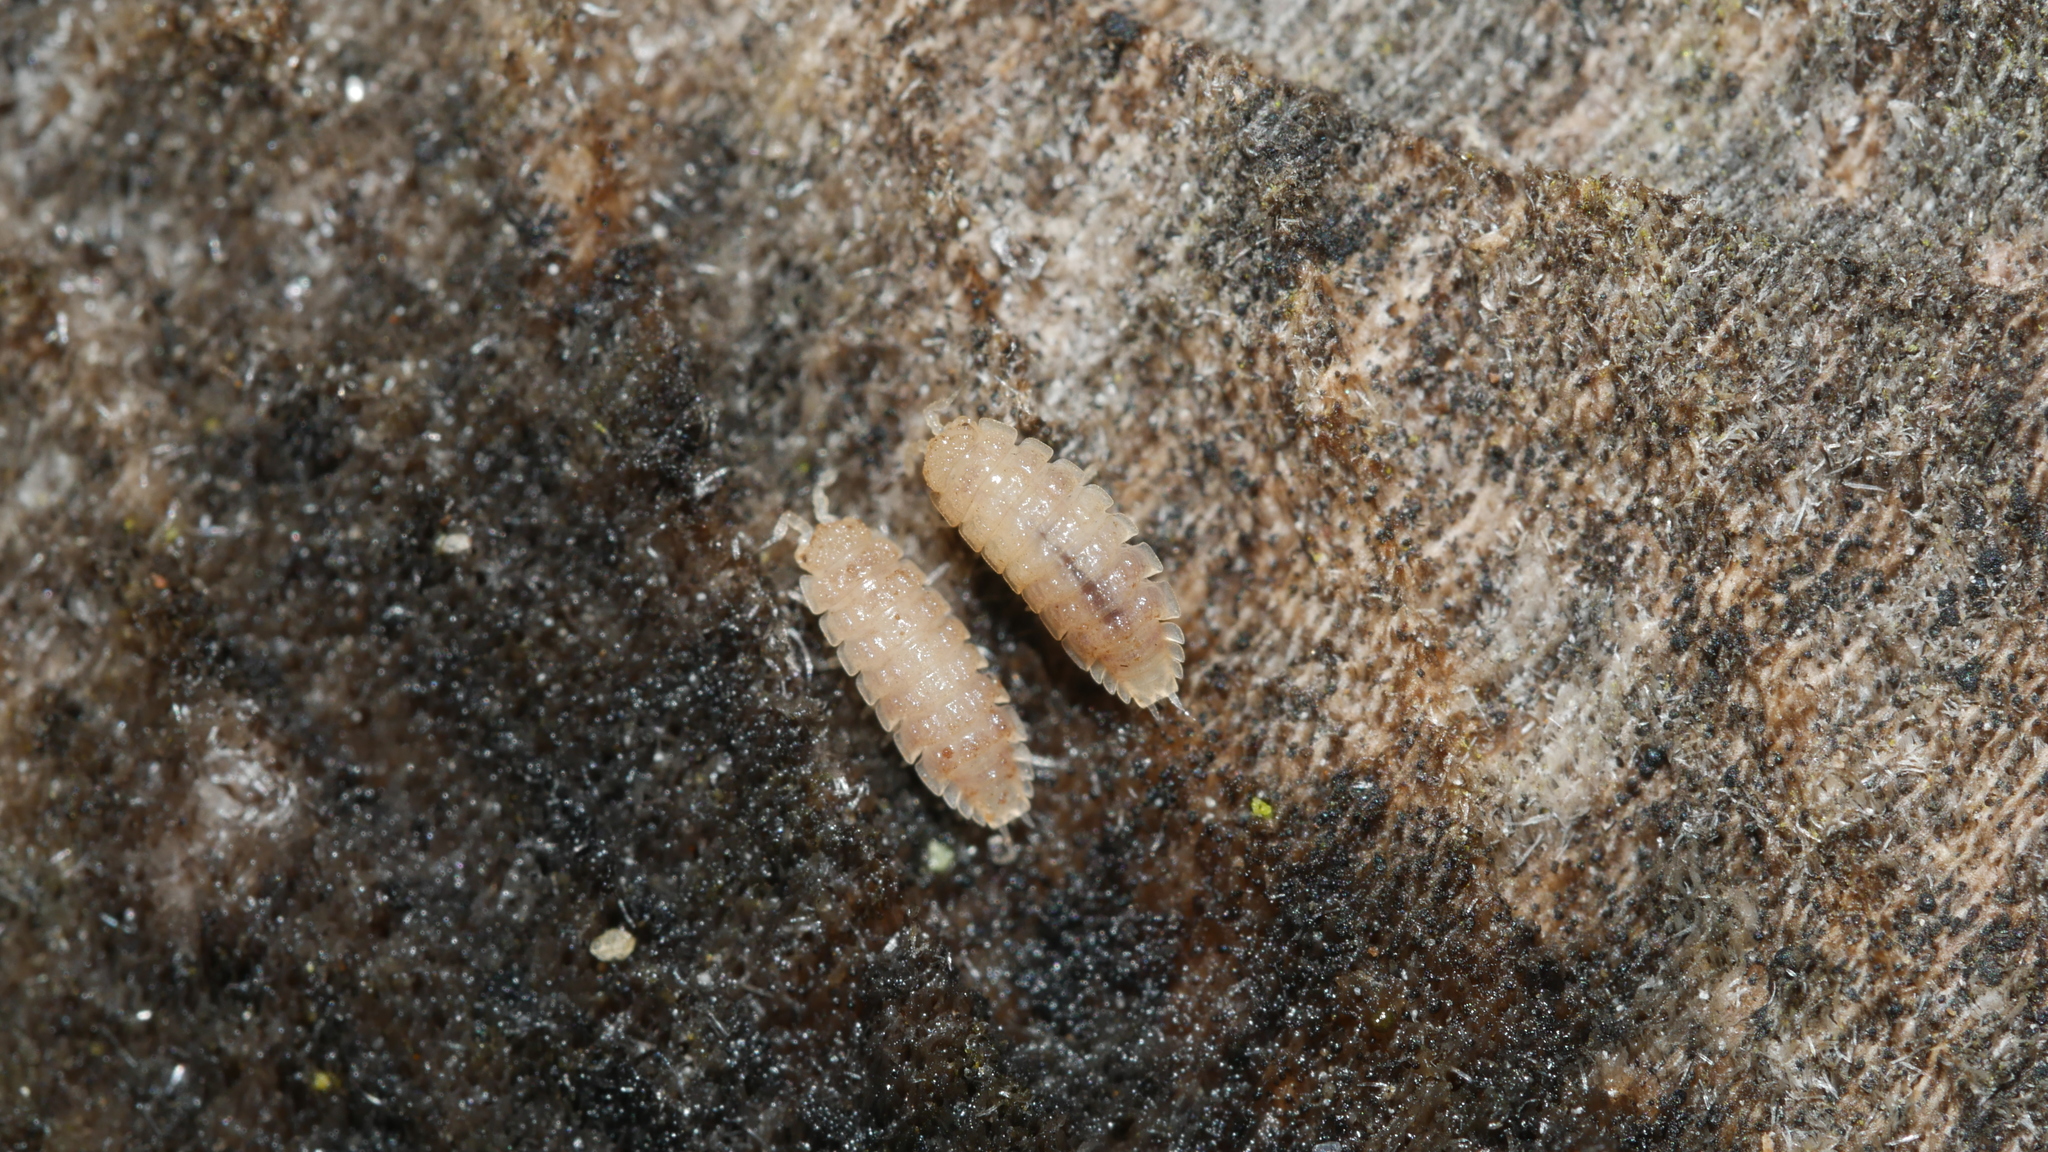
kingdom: Animalia
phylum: Arthropoda
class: Malacostraca
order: Isopoda
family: Trichoniscidae
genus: Haplophthalmus
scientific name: Haplophthalmus danicus
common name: Pillbug
